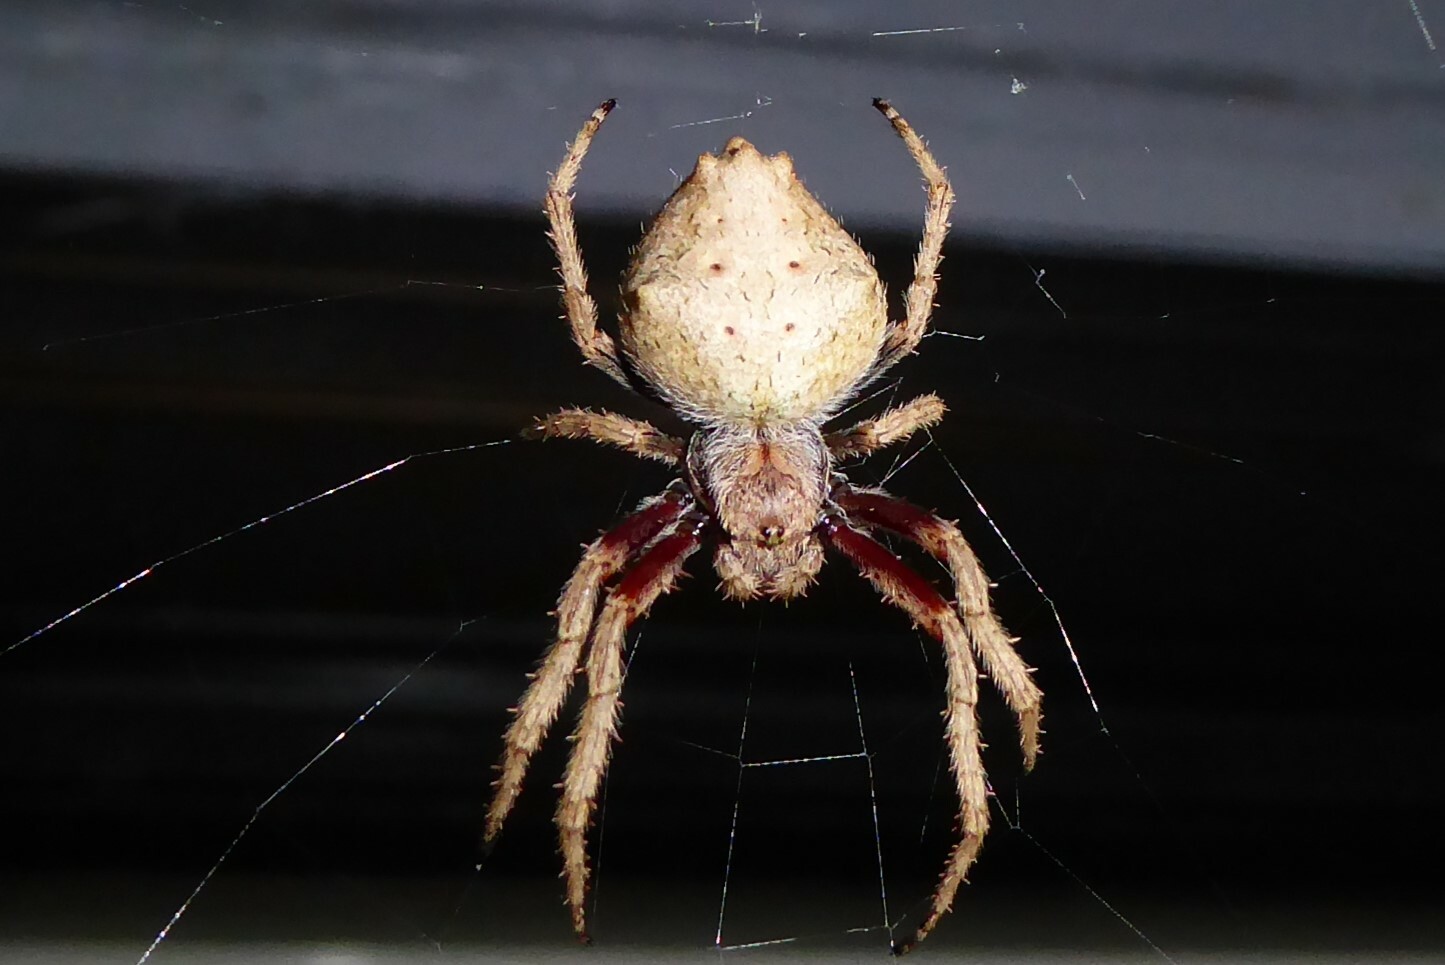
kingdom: Animalia
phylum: Arthropoda
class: Arachnida
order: Araneae
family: Araneidae
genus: Eriophora
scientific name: Eriophora pustulosa
